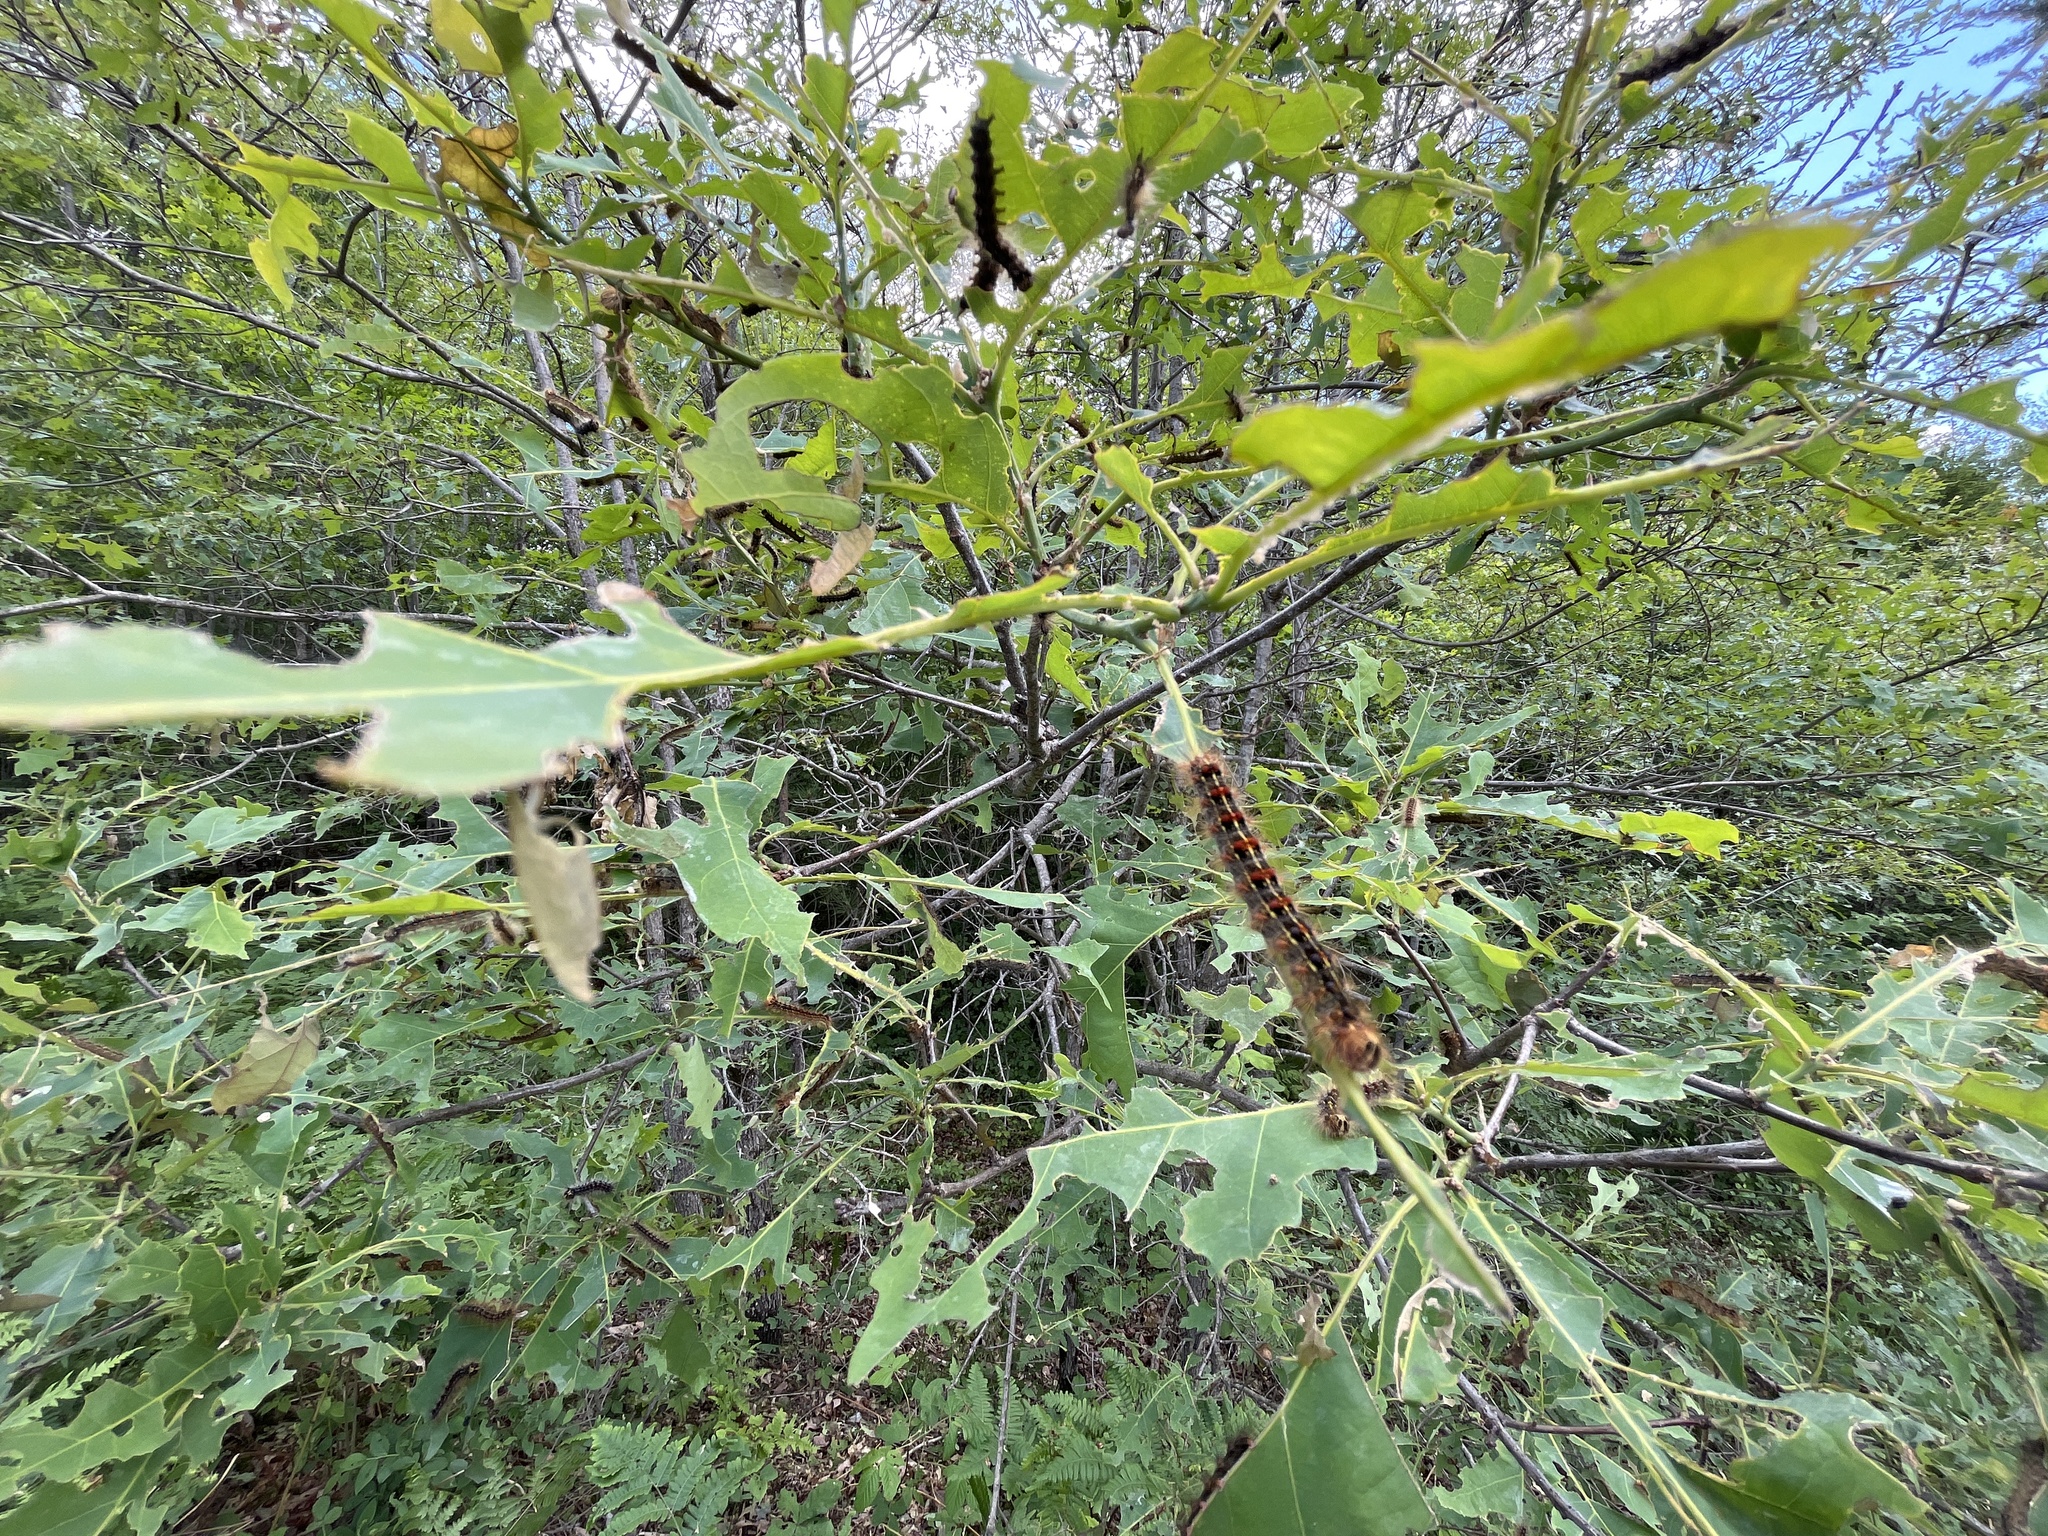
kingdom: Animalia
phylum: Arthropoda
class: Insecta
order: Lepidoptera
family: Erebidae
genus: Lymantria
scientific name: Lymantria dispar
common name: Gypsy moth
